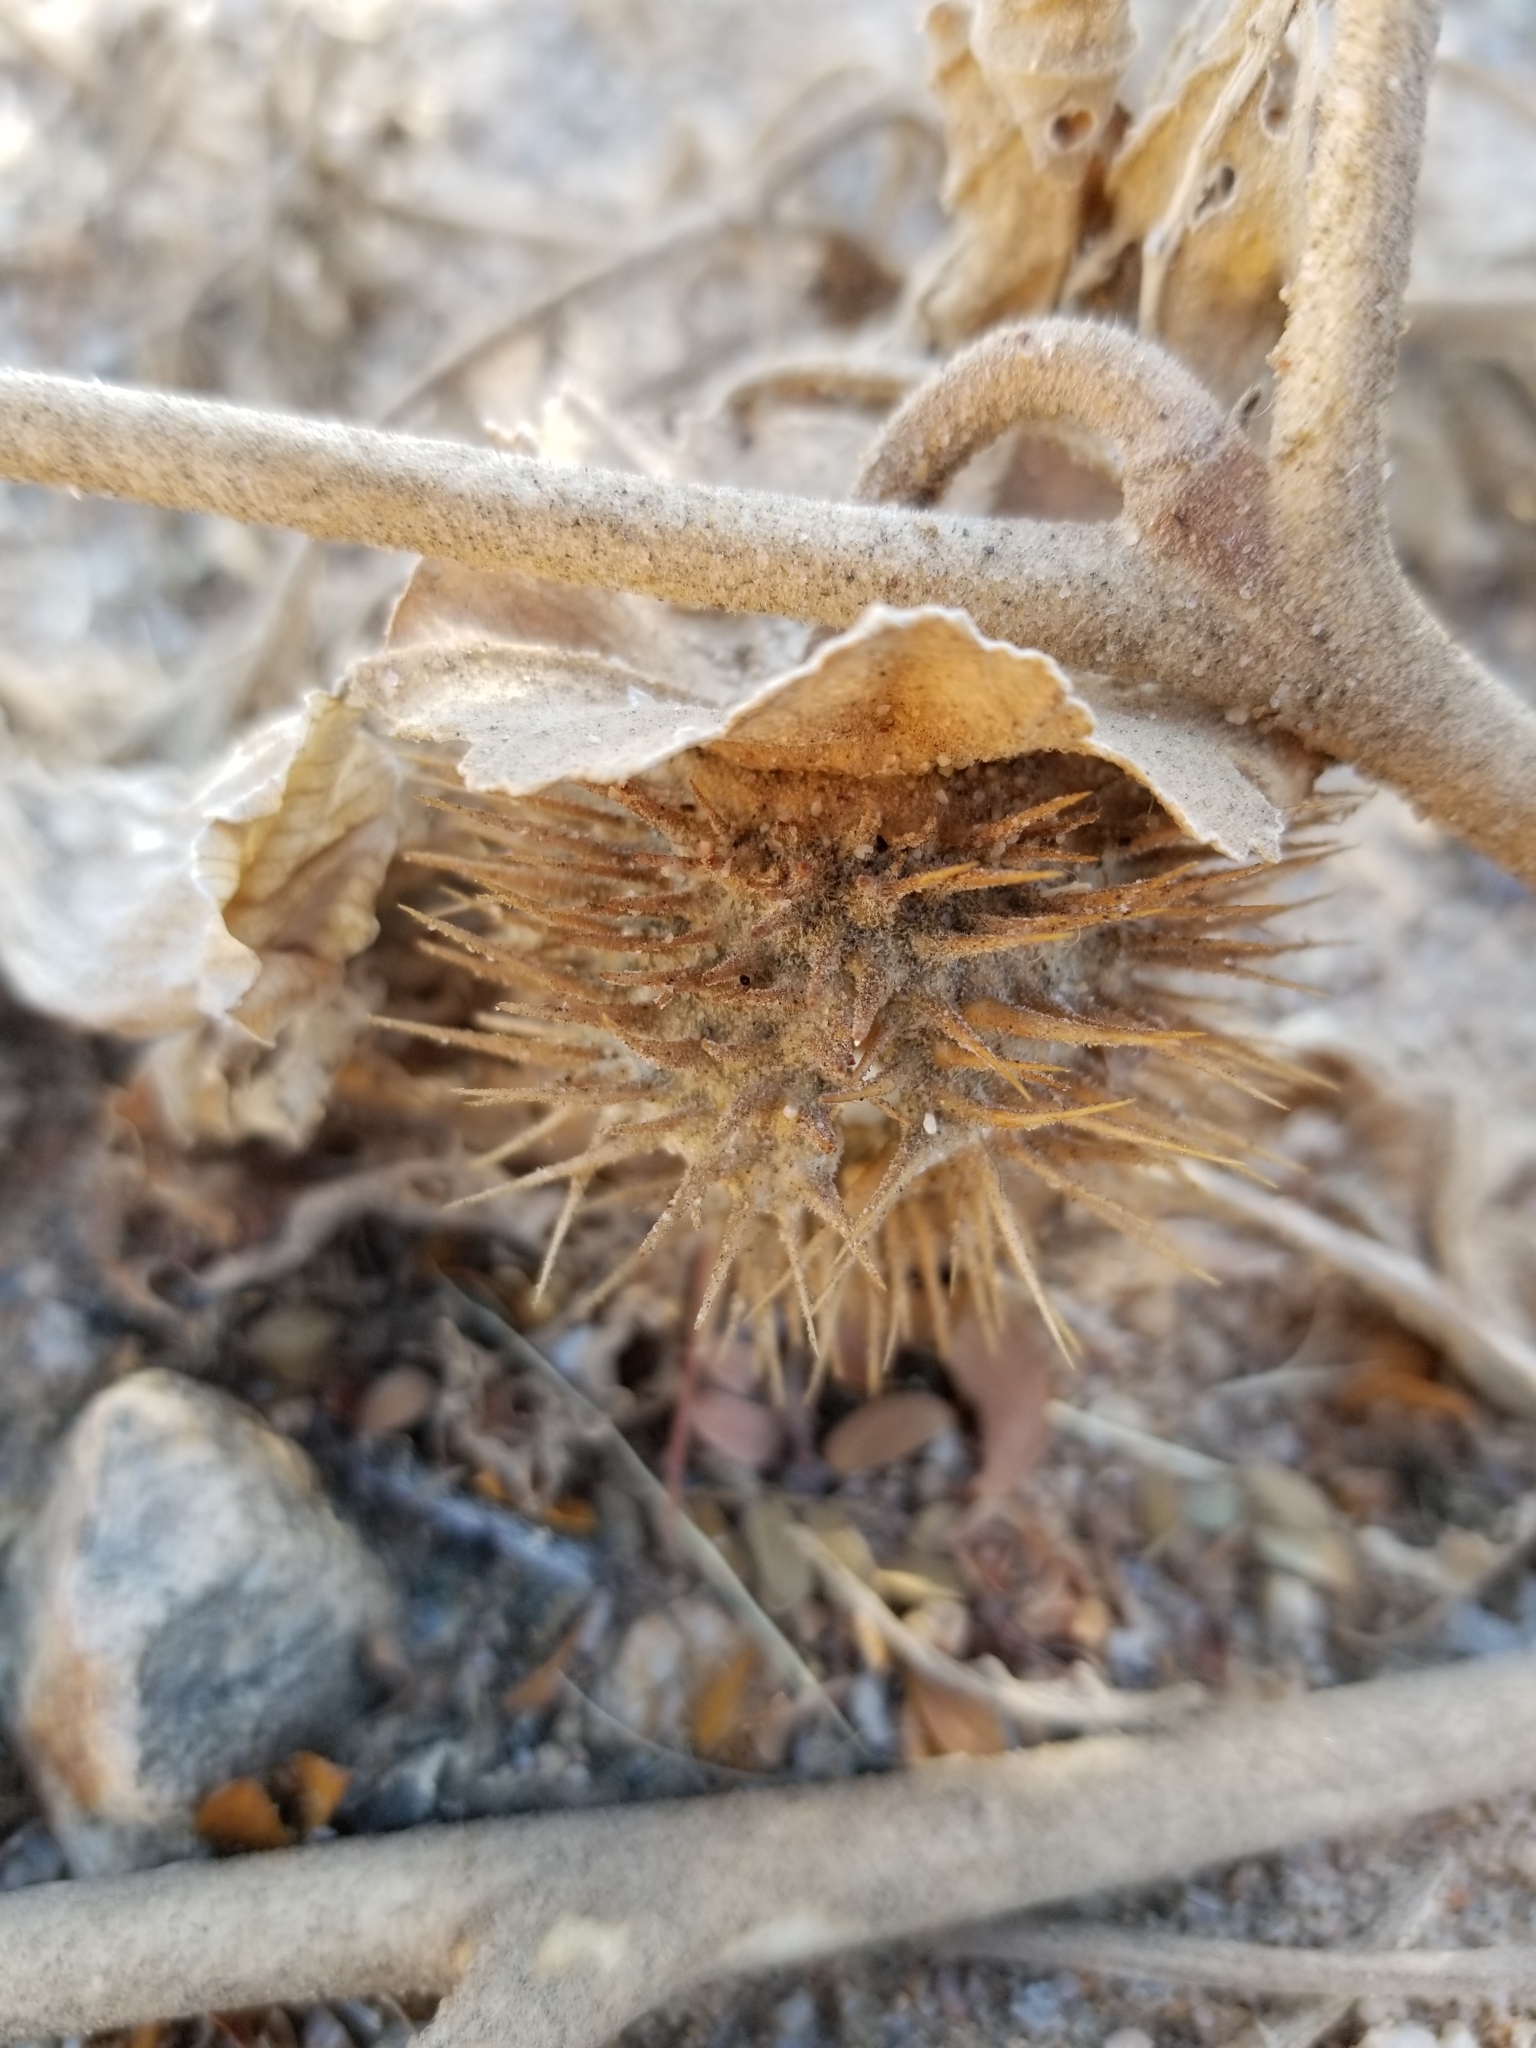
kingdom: Plantae
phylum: Tracheophyta
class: Magnoliopsida
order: Solanales
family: Solanaceae
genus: Datura
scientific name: Datura wrightii
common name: Sacred thorn-apple
